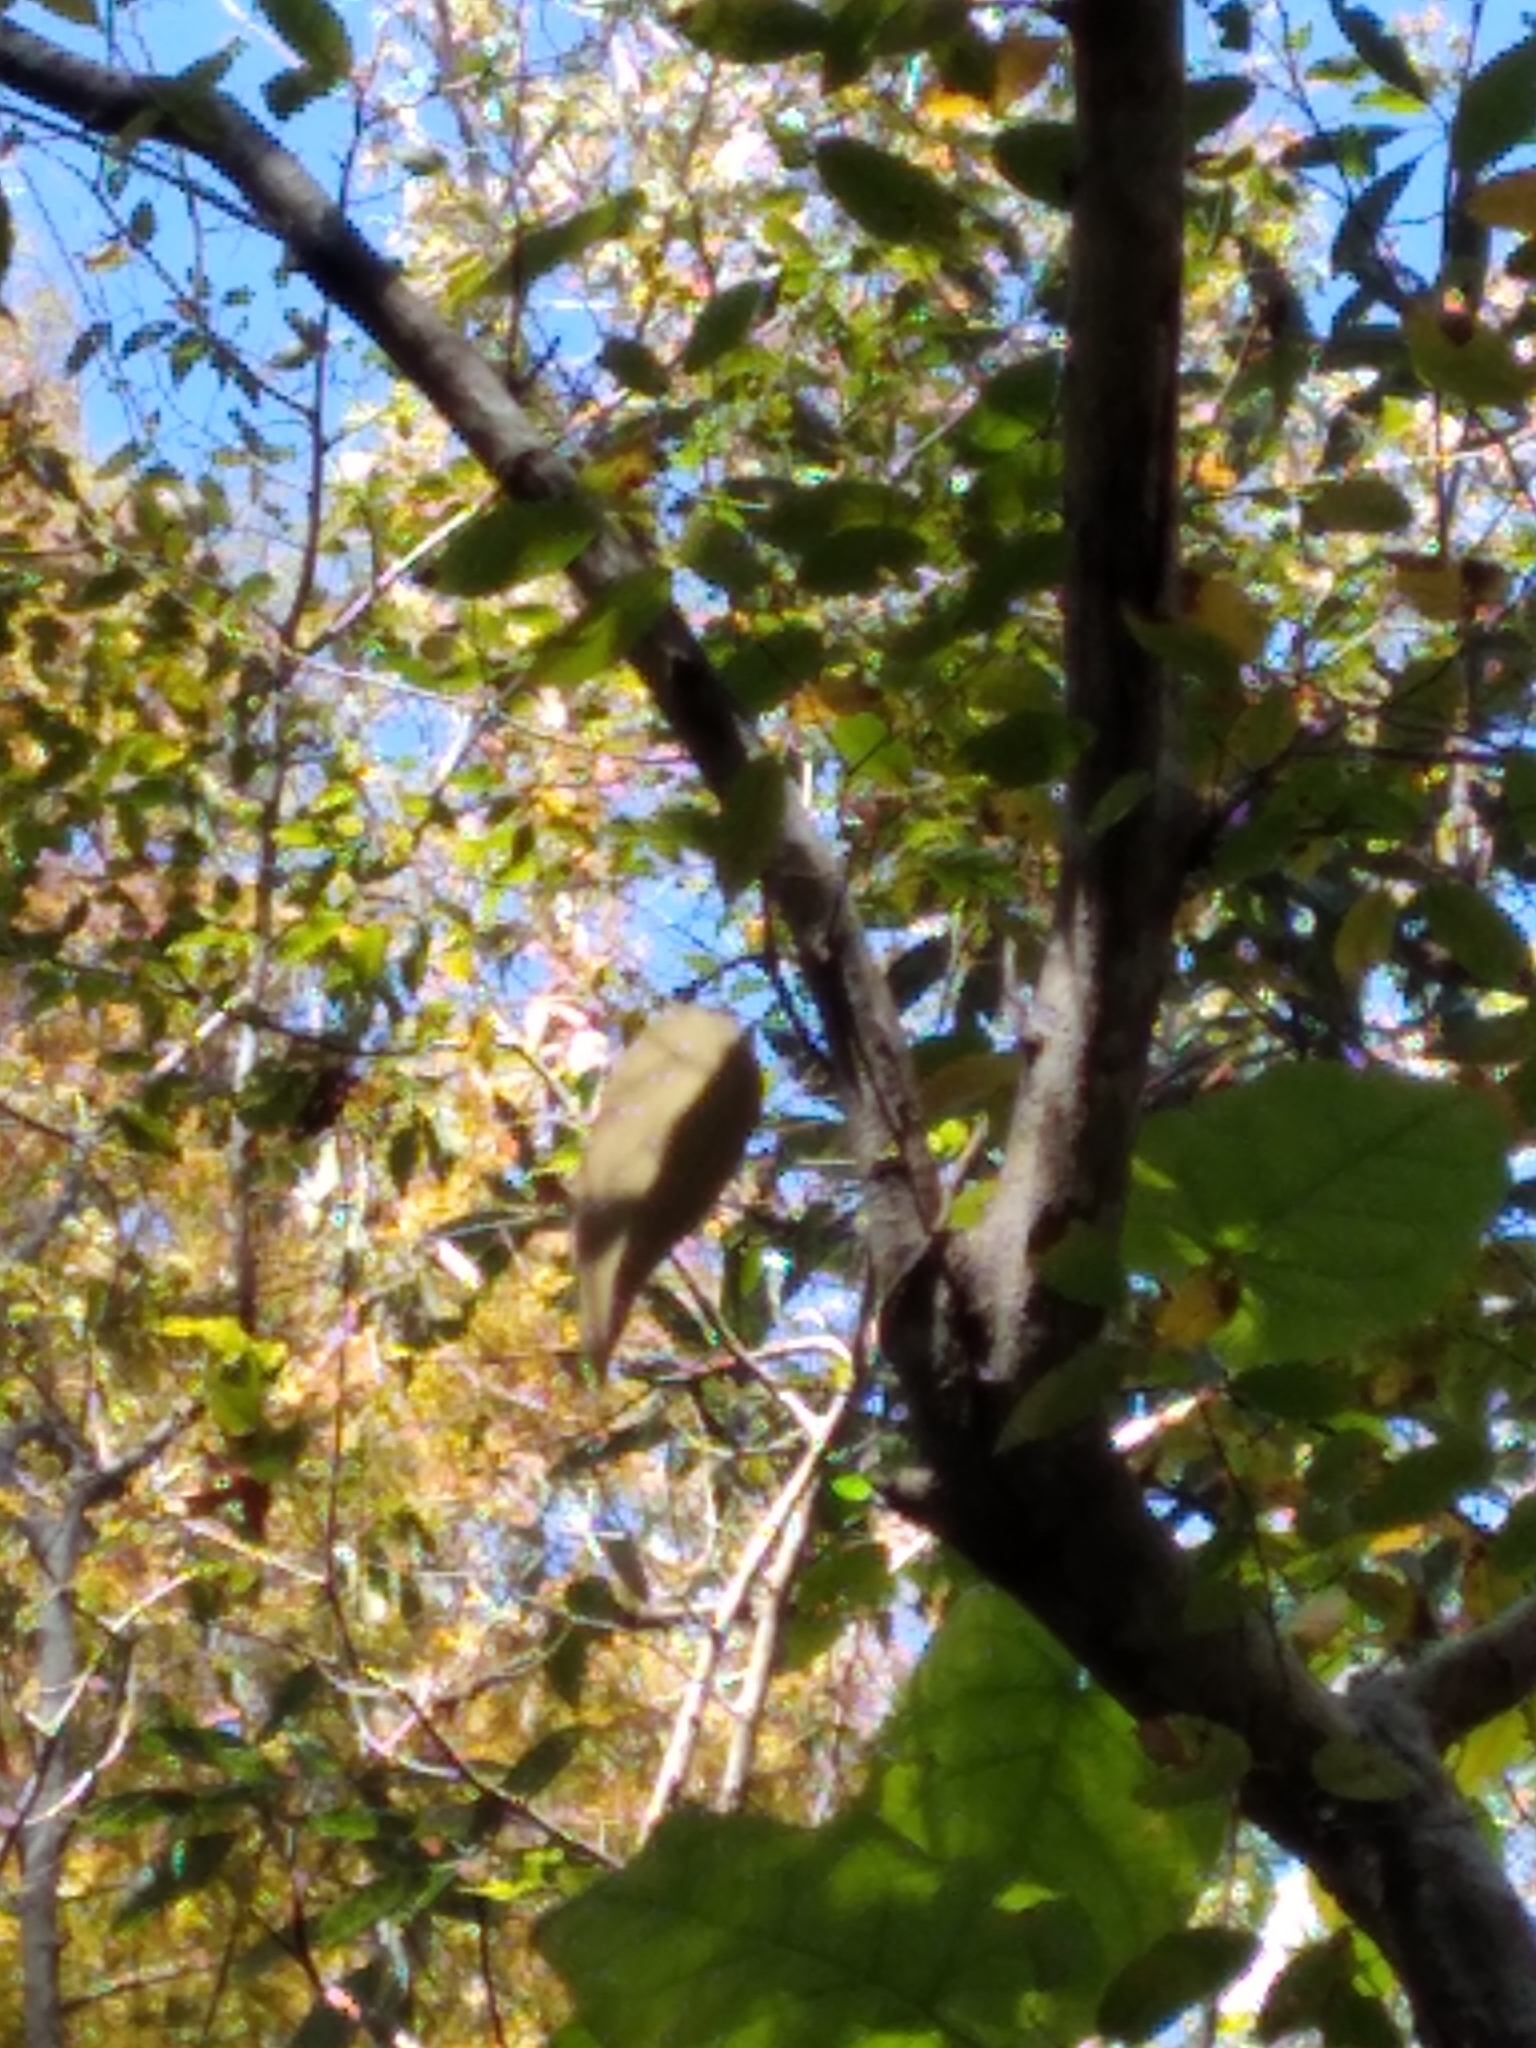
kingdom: Plantae
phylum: Tracheophyta
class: Magnoliopsida
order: Gentianales
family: Apocynaceae
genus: Gonolobus
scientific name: Gonolobus suberosus
